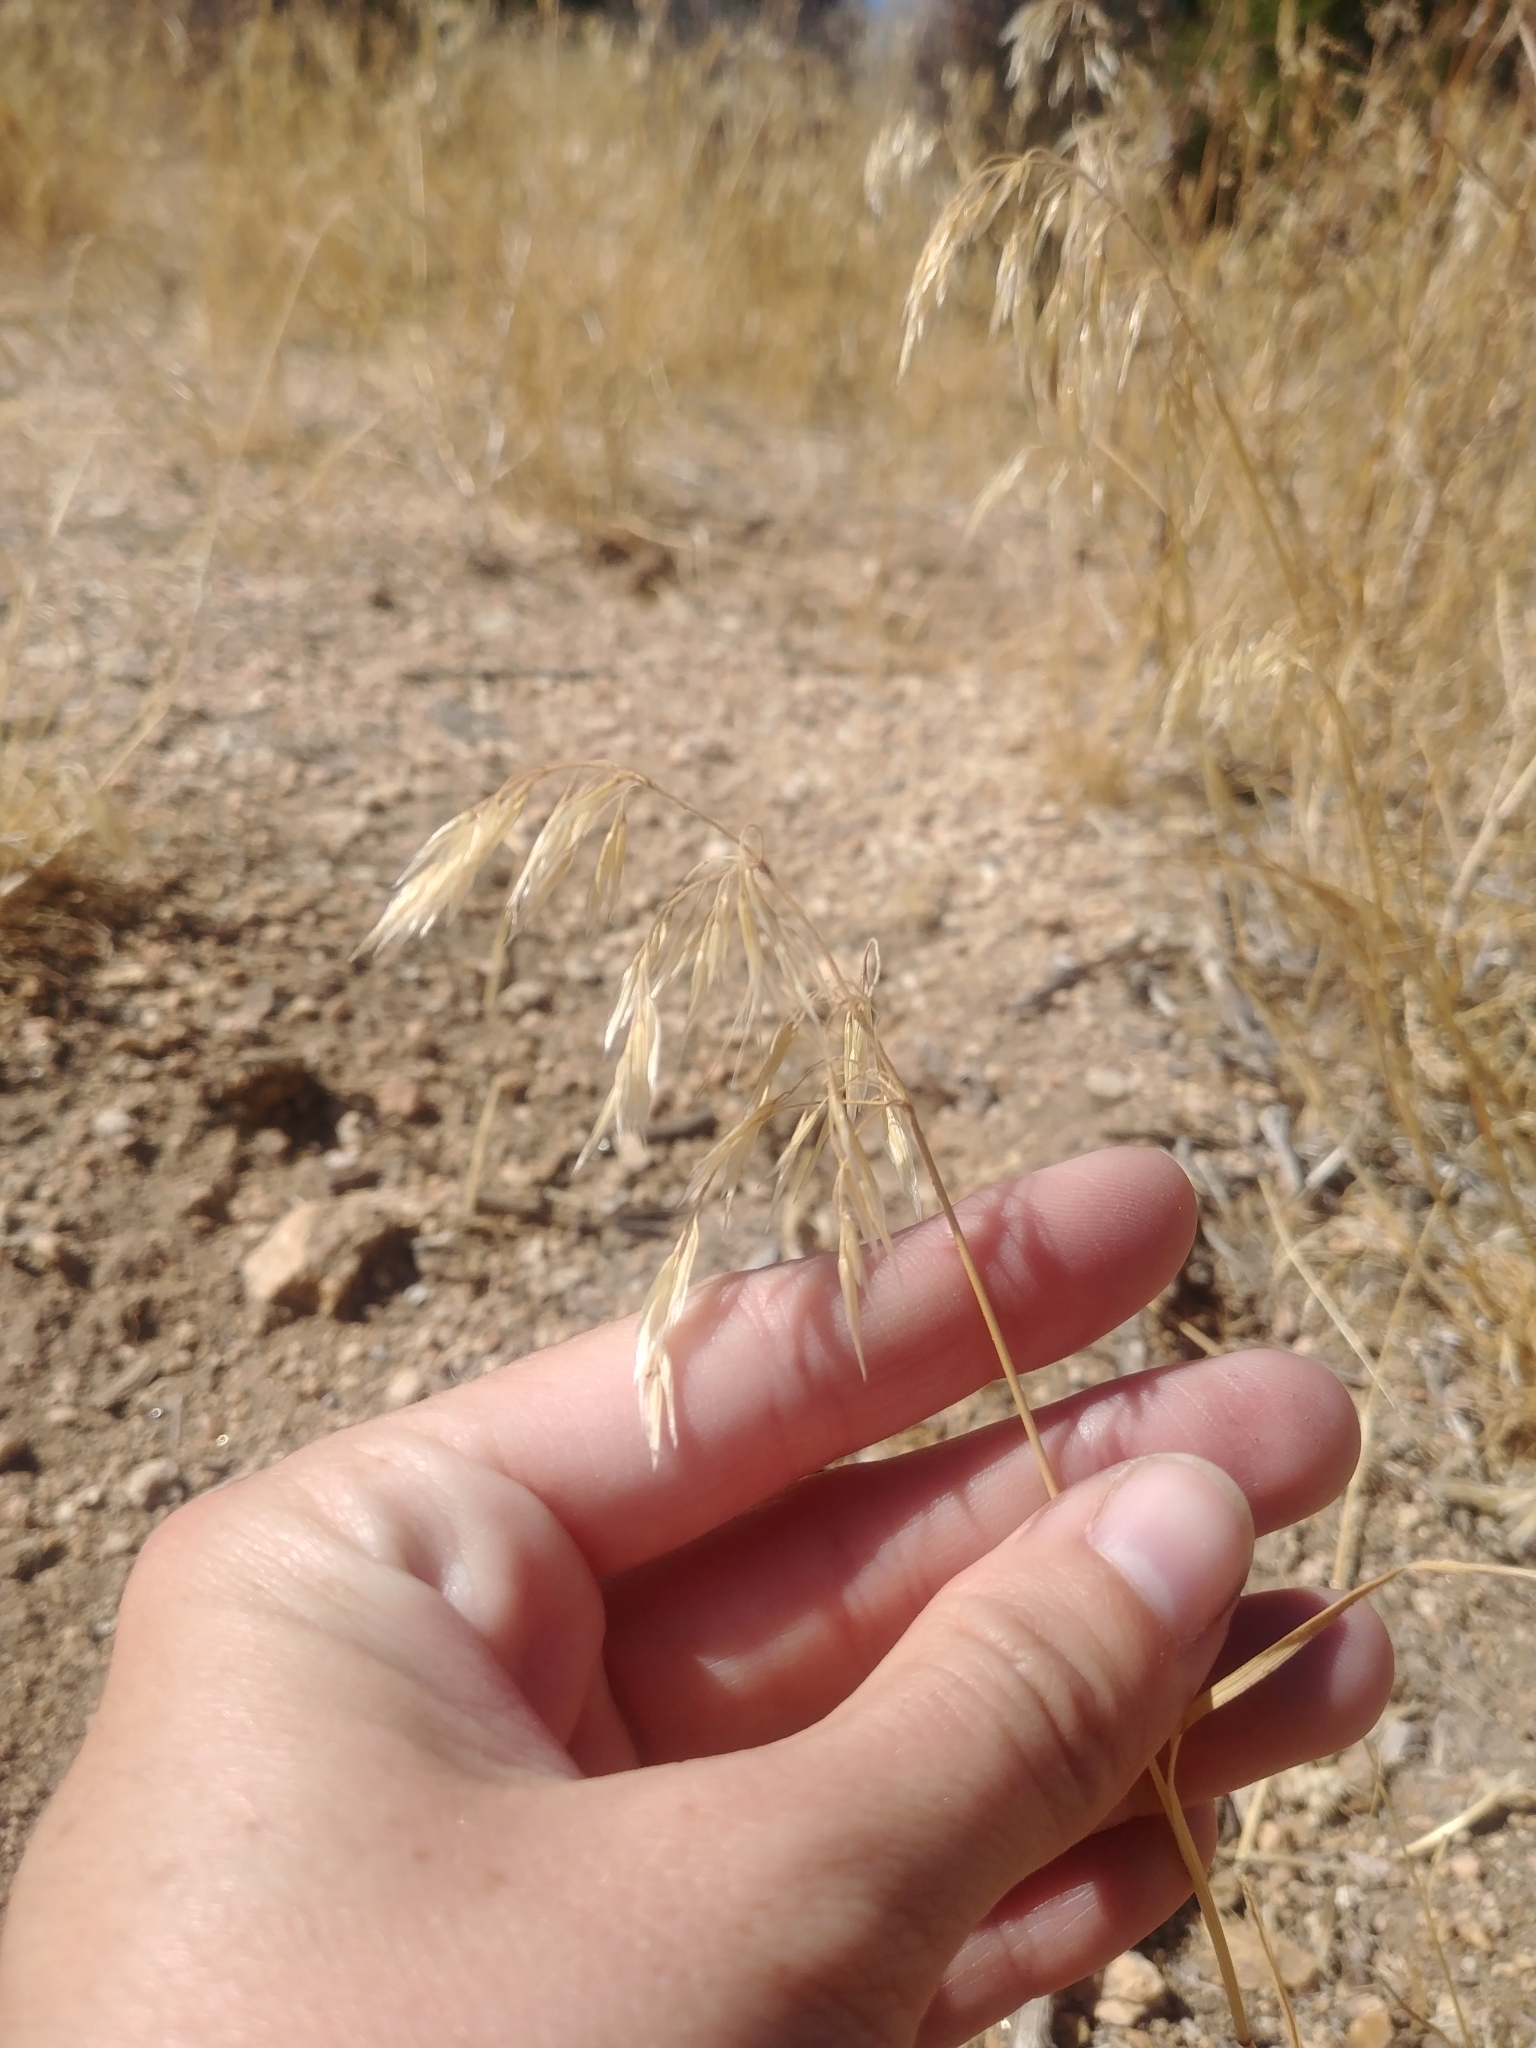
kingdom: Plantae
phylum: Tracheophyta
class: Liliopsida
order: Poales
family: Poaceae
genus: Bromus
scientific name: Bromus tectorum
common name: Cheatgrass
